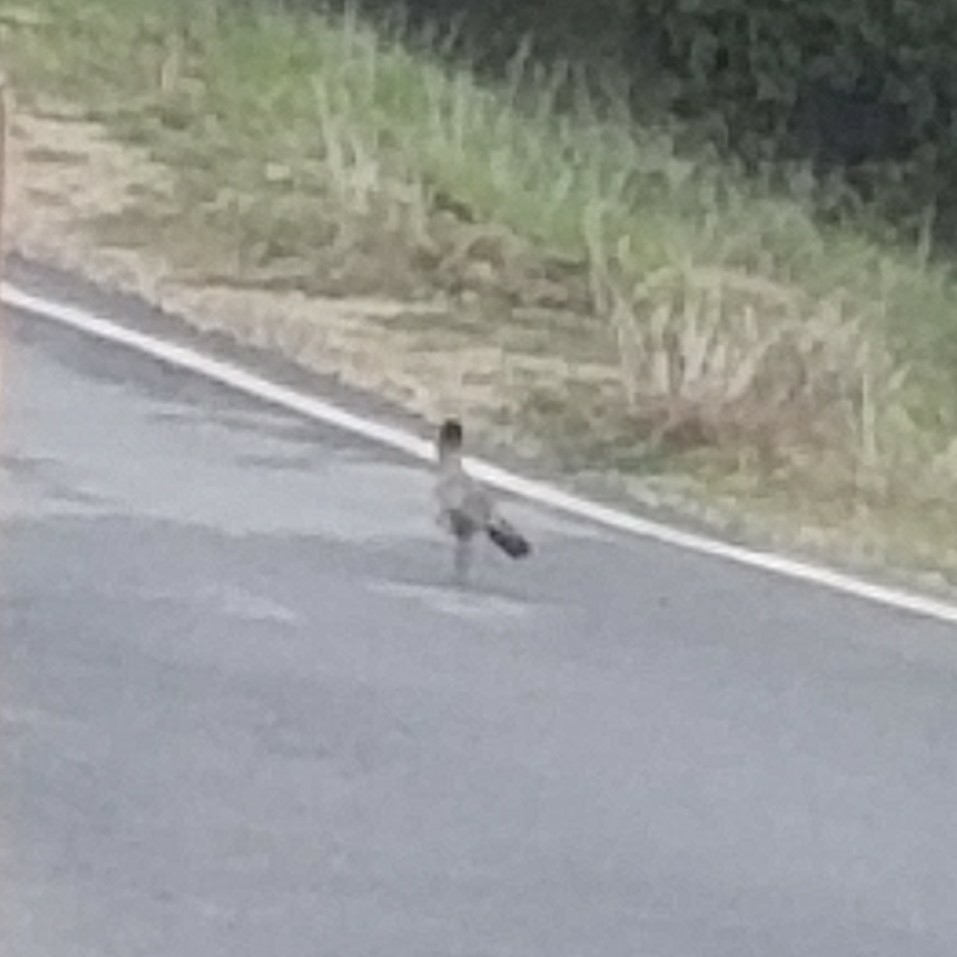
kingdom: Animalia
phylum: Chordata
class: Aves
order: Cuculiformes
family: Cuculidae
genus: Geococcyx
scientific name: Geococcyx californianus
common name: Greater roadrunner
